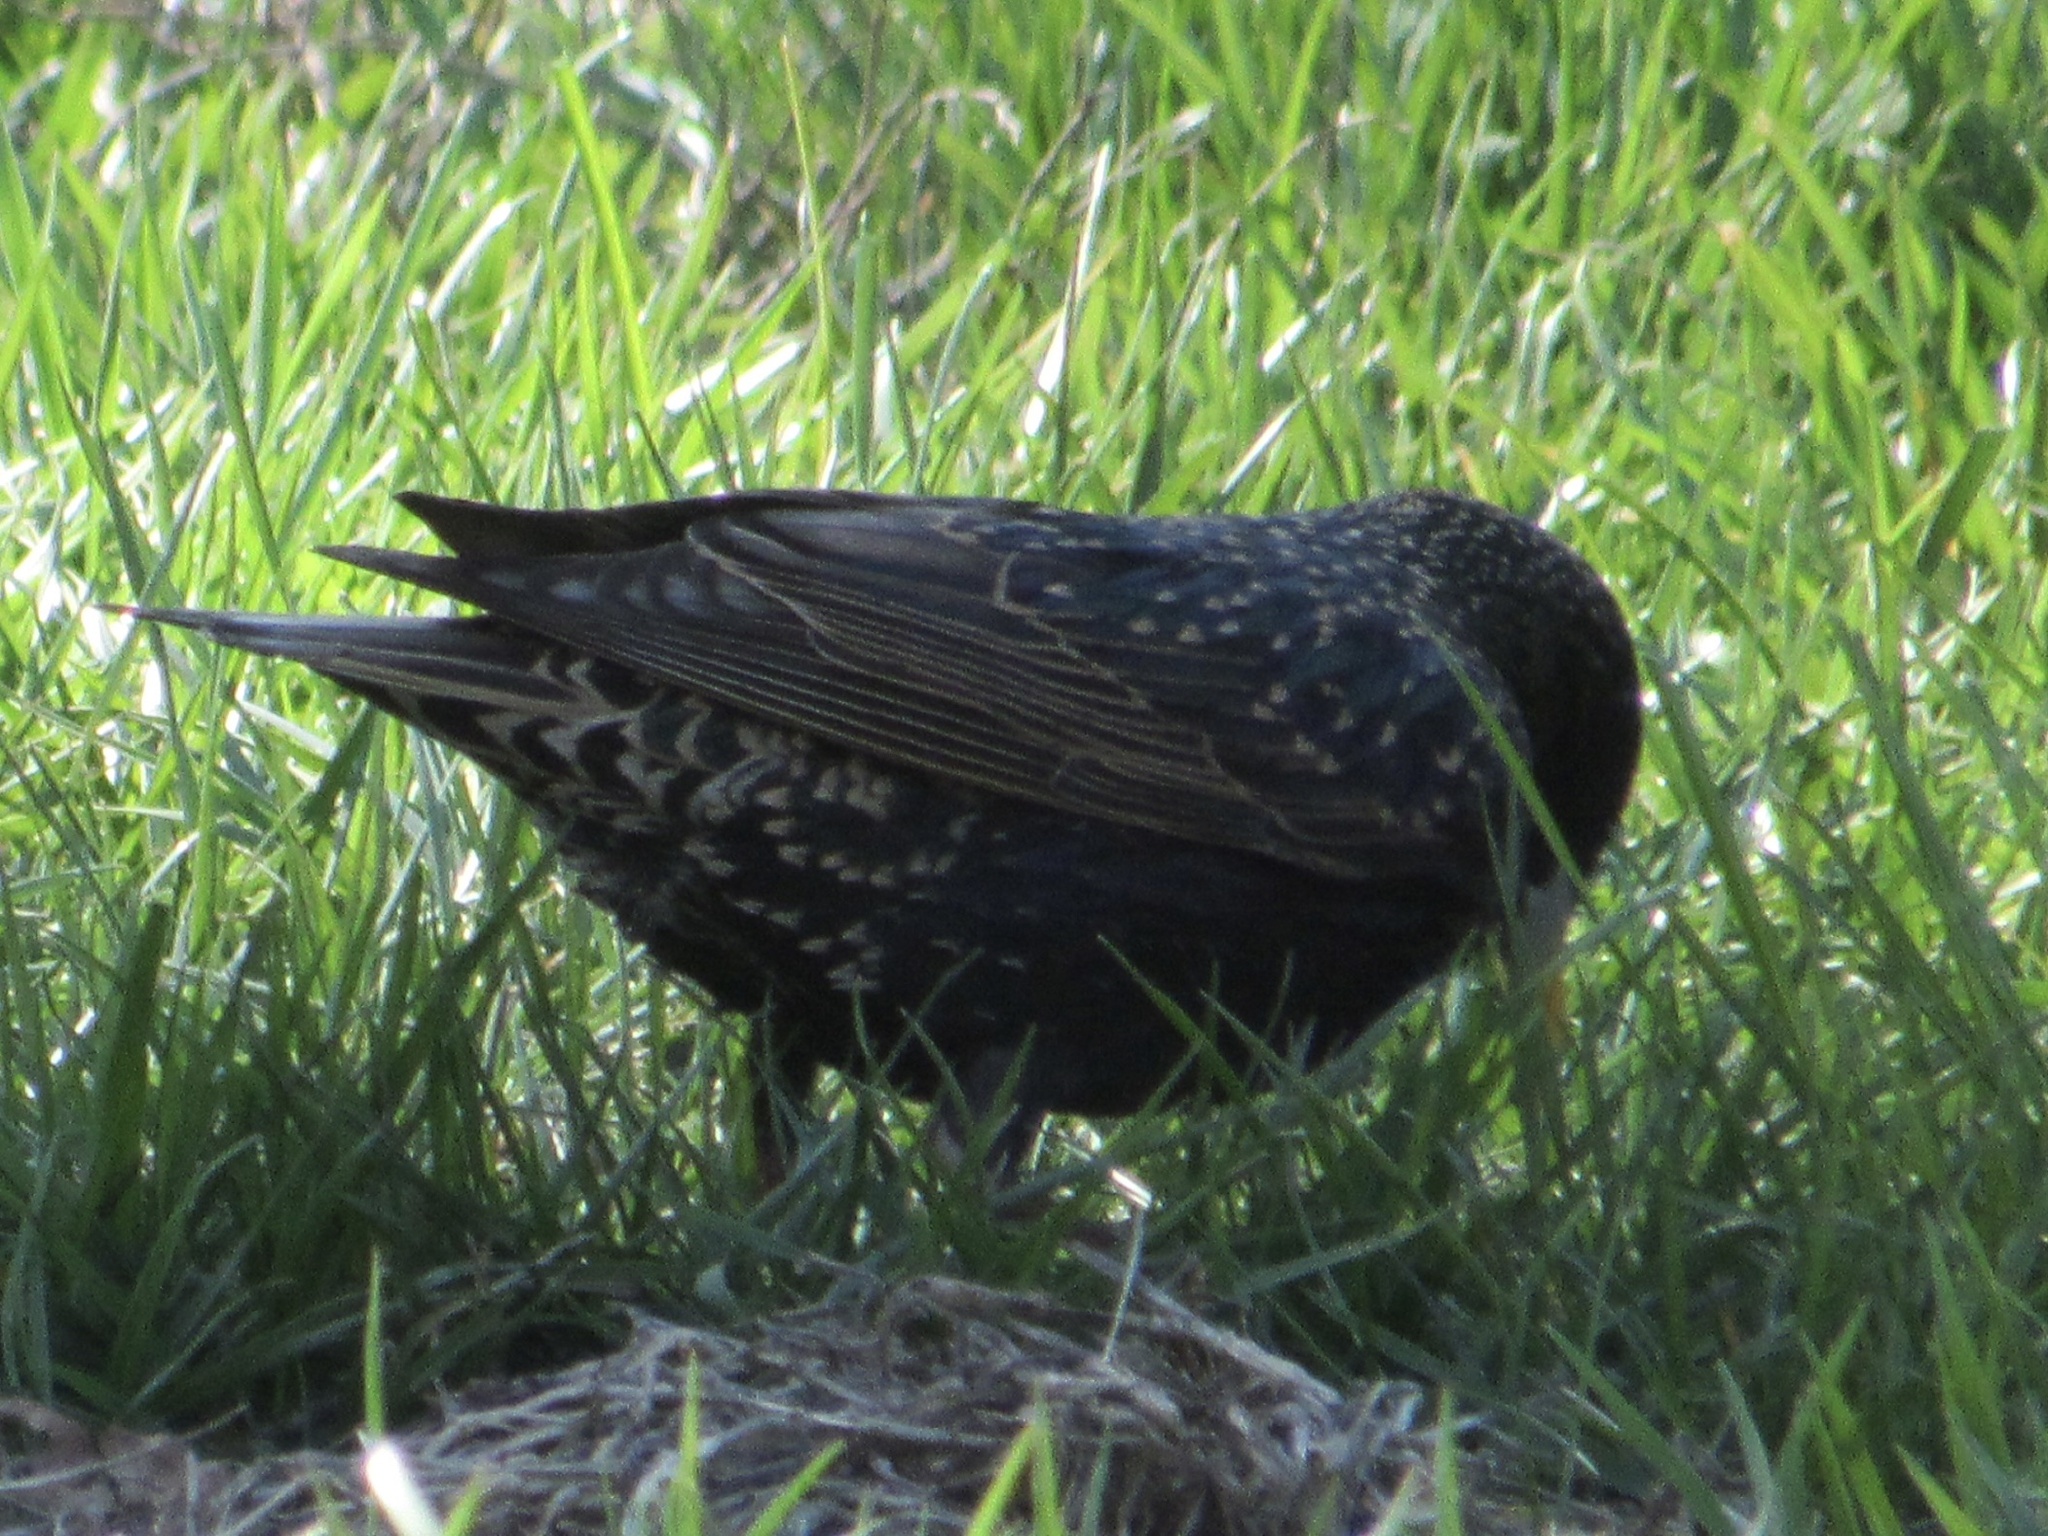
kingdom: Animalia
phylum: Chordata
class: Aves
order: Passeriformes
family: Sturnidae
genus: Sturnus
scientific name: Sturnus vulgaris
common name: Common starling
